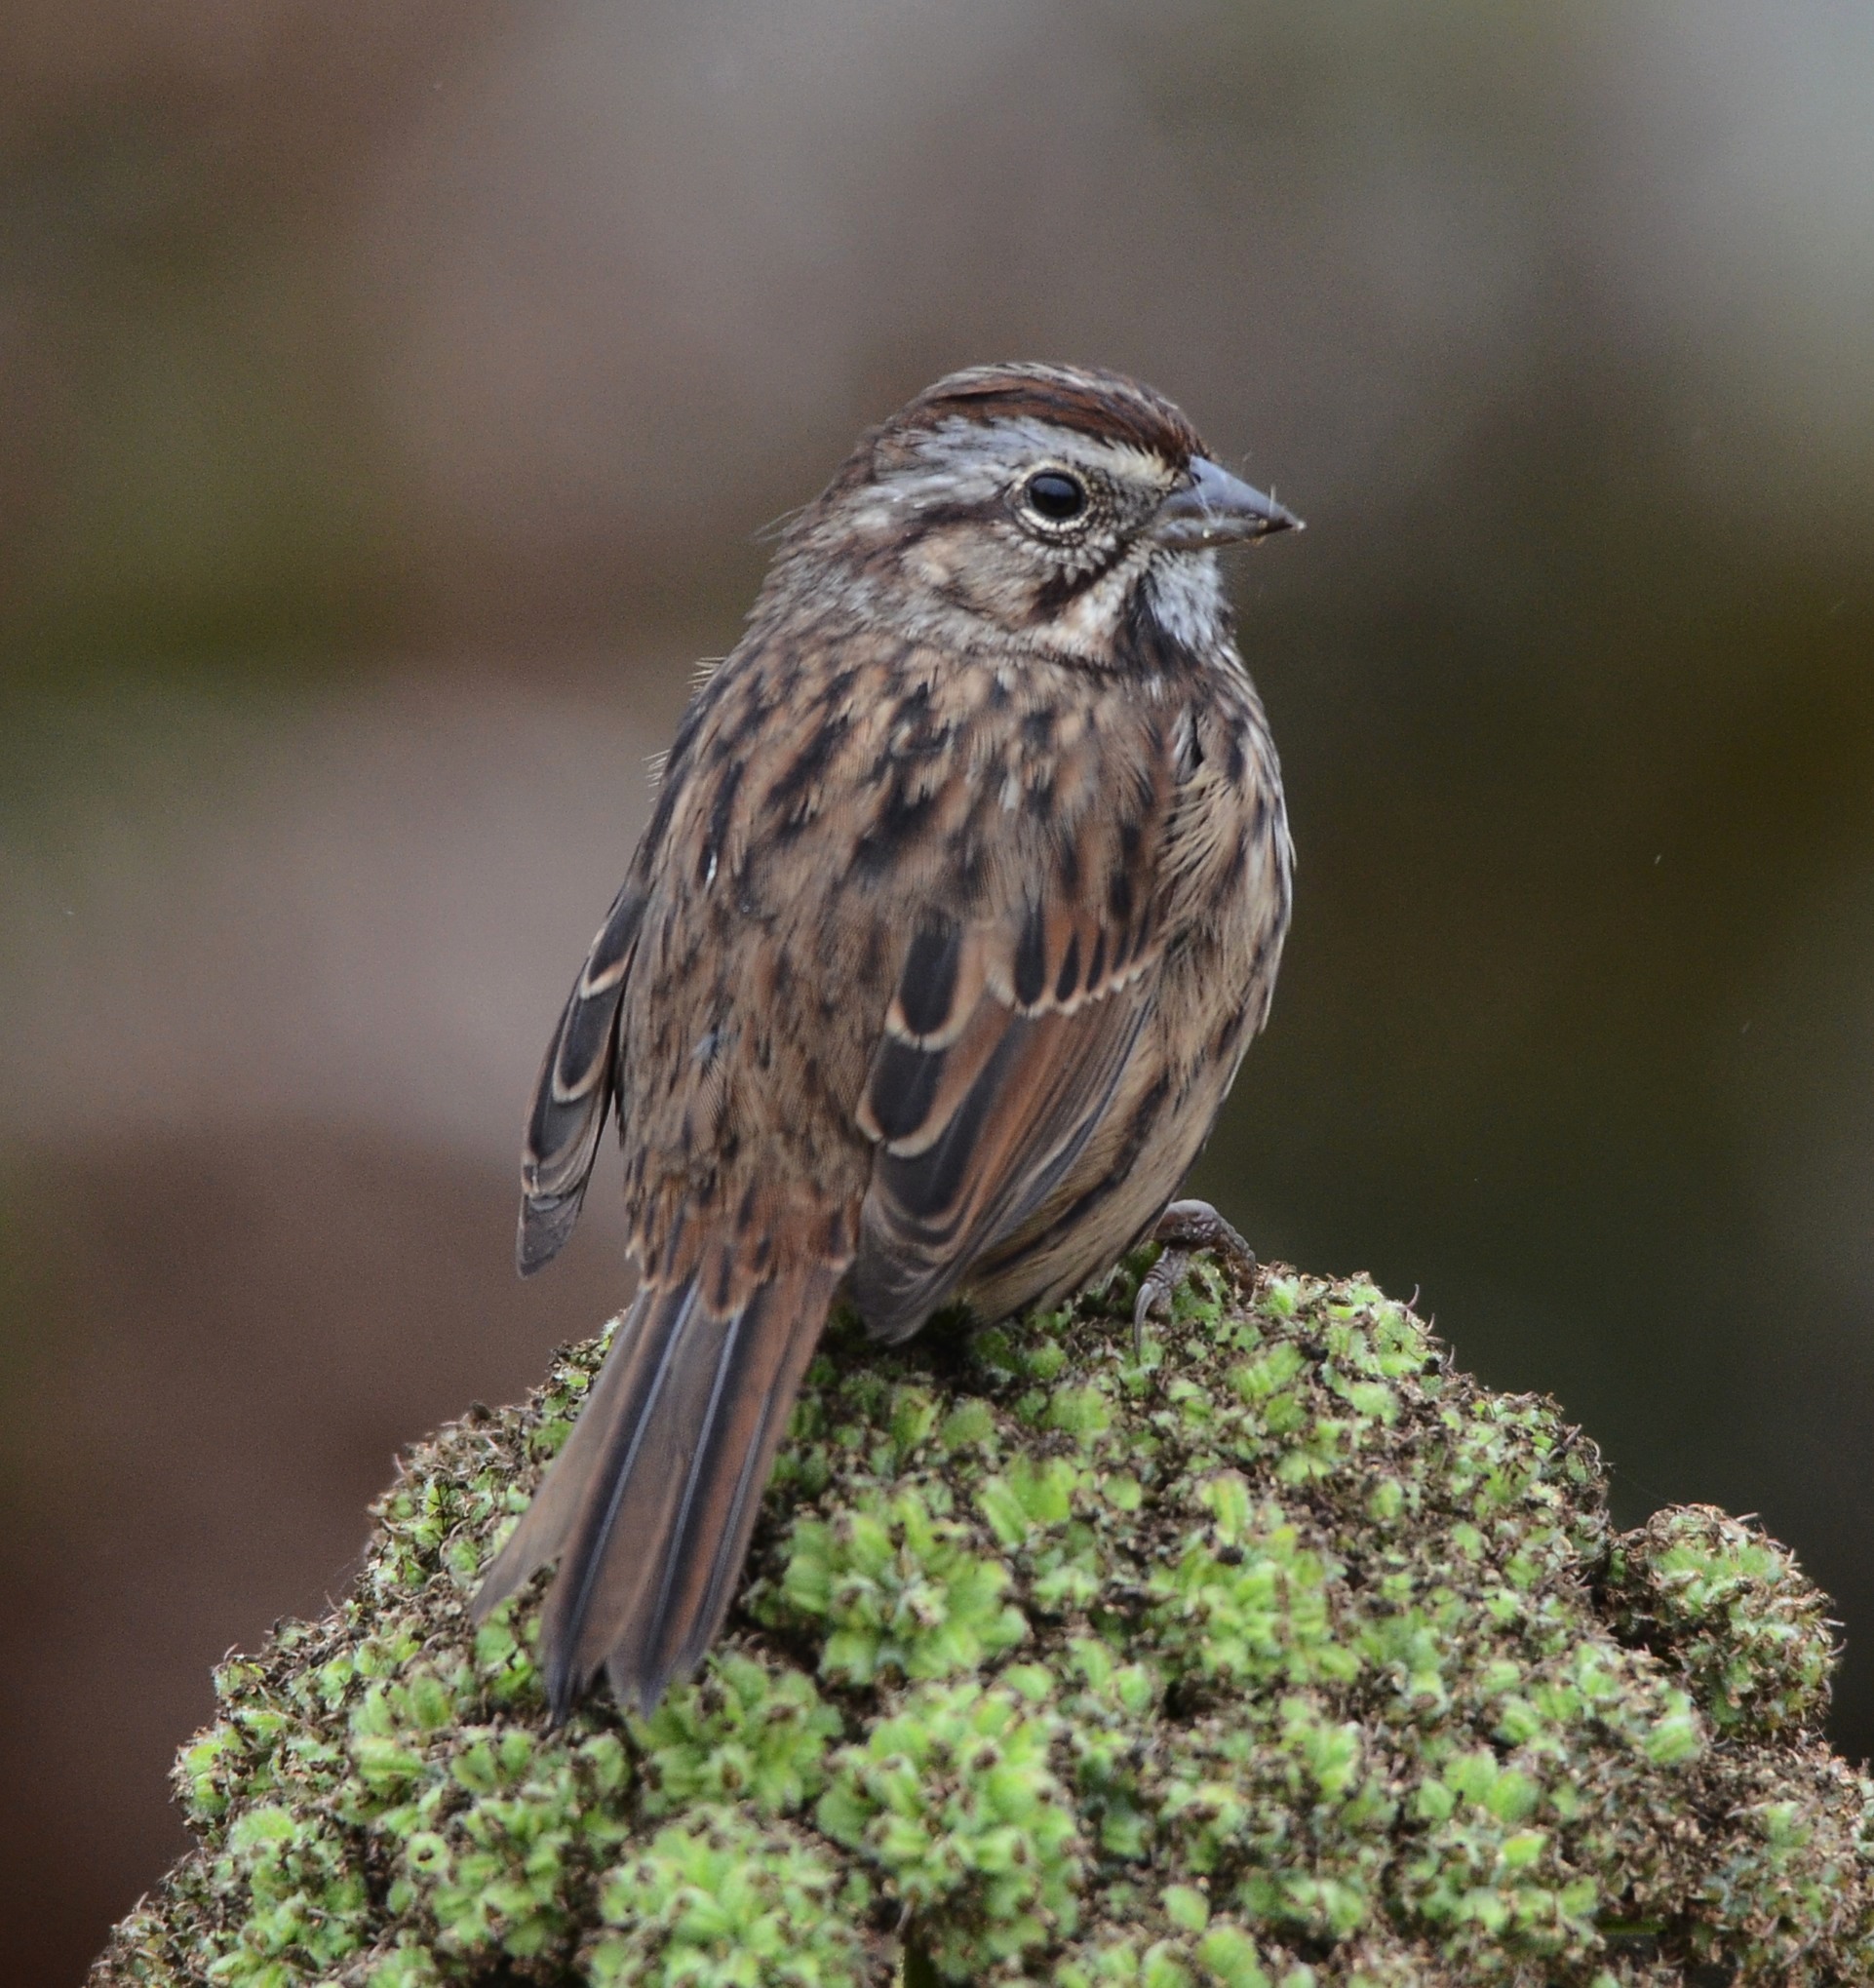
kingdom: Animalia
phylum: Chordata
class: Aves
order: Passeriformes
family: Passerellidae
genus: Melospiza
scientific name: Melospiza melodia
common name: Song sparrow
